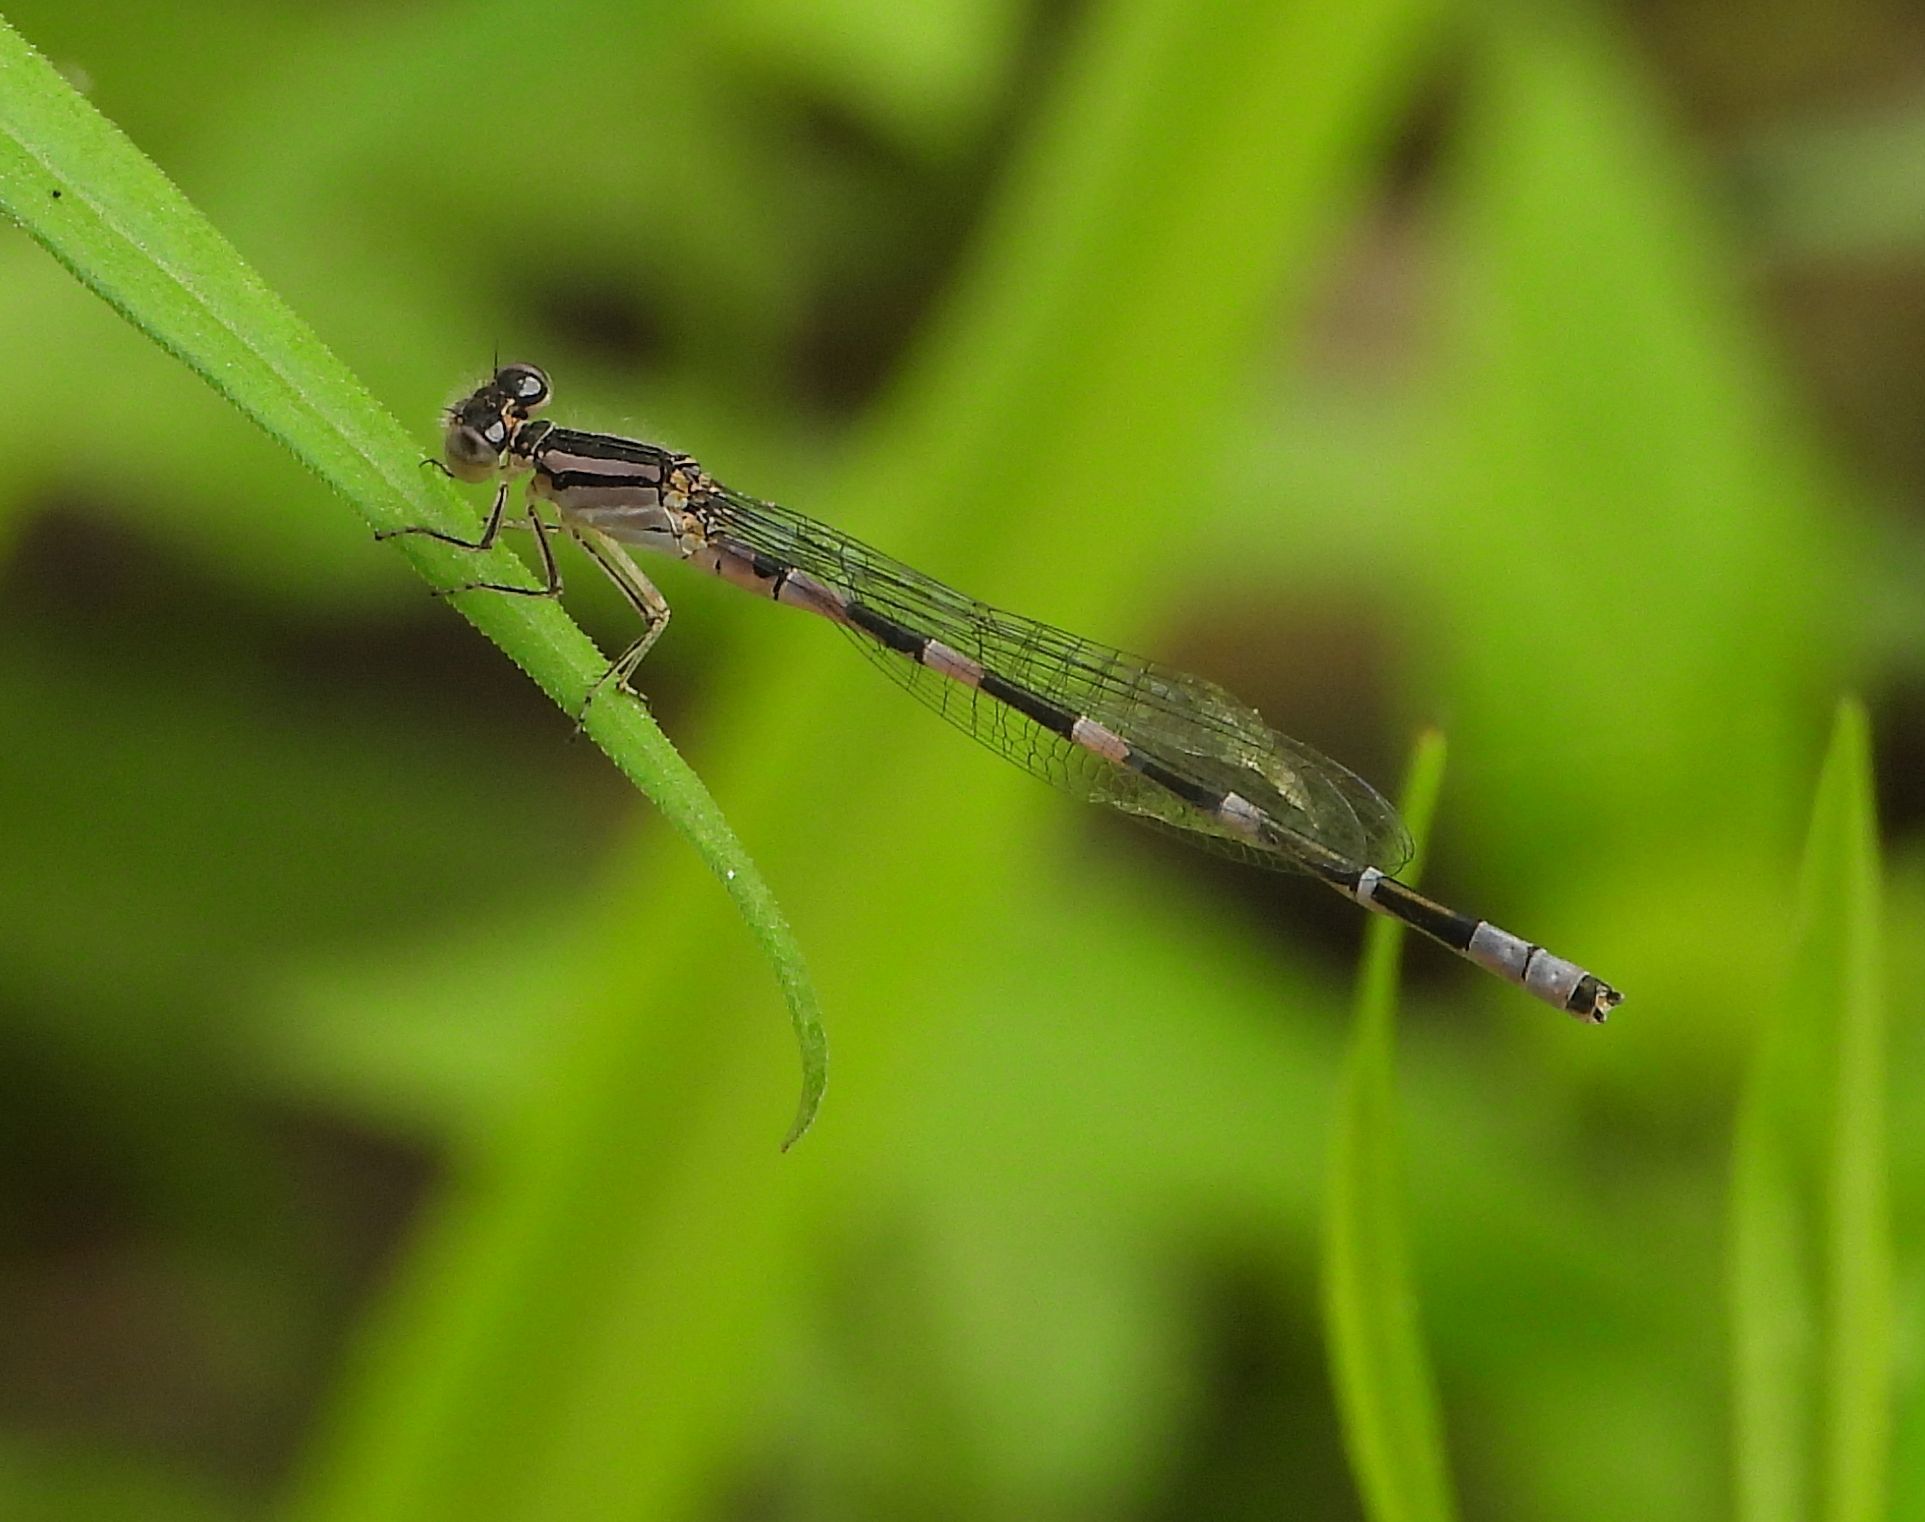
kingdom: Animalia
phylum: Arthropoda
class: Insecta
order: Odonata
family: Coenagrionidae
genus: Enallagma
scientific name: Enallagma carunculatum
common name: Tule bluet
